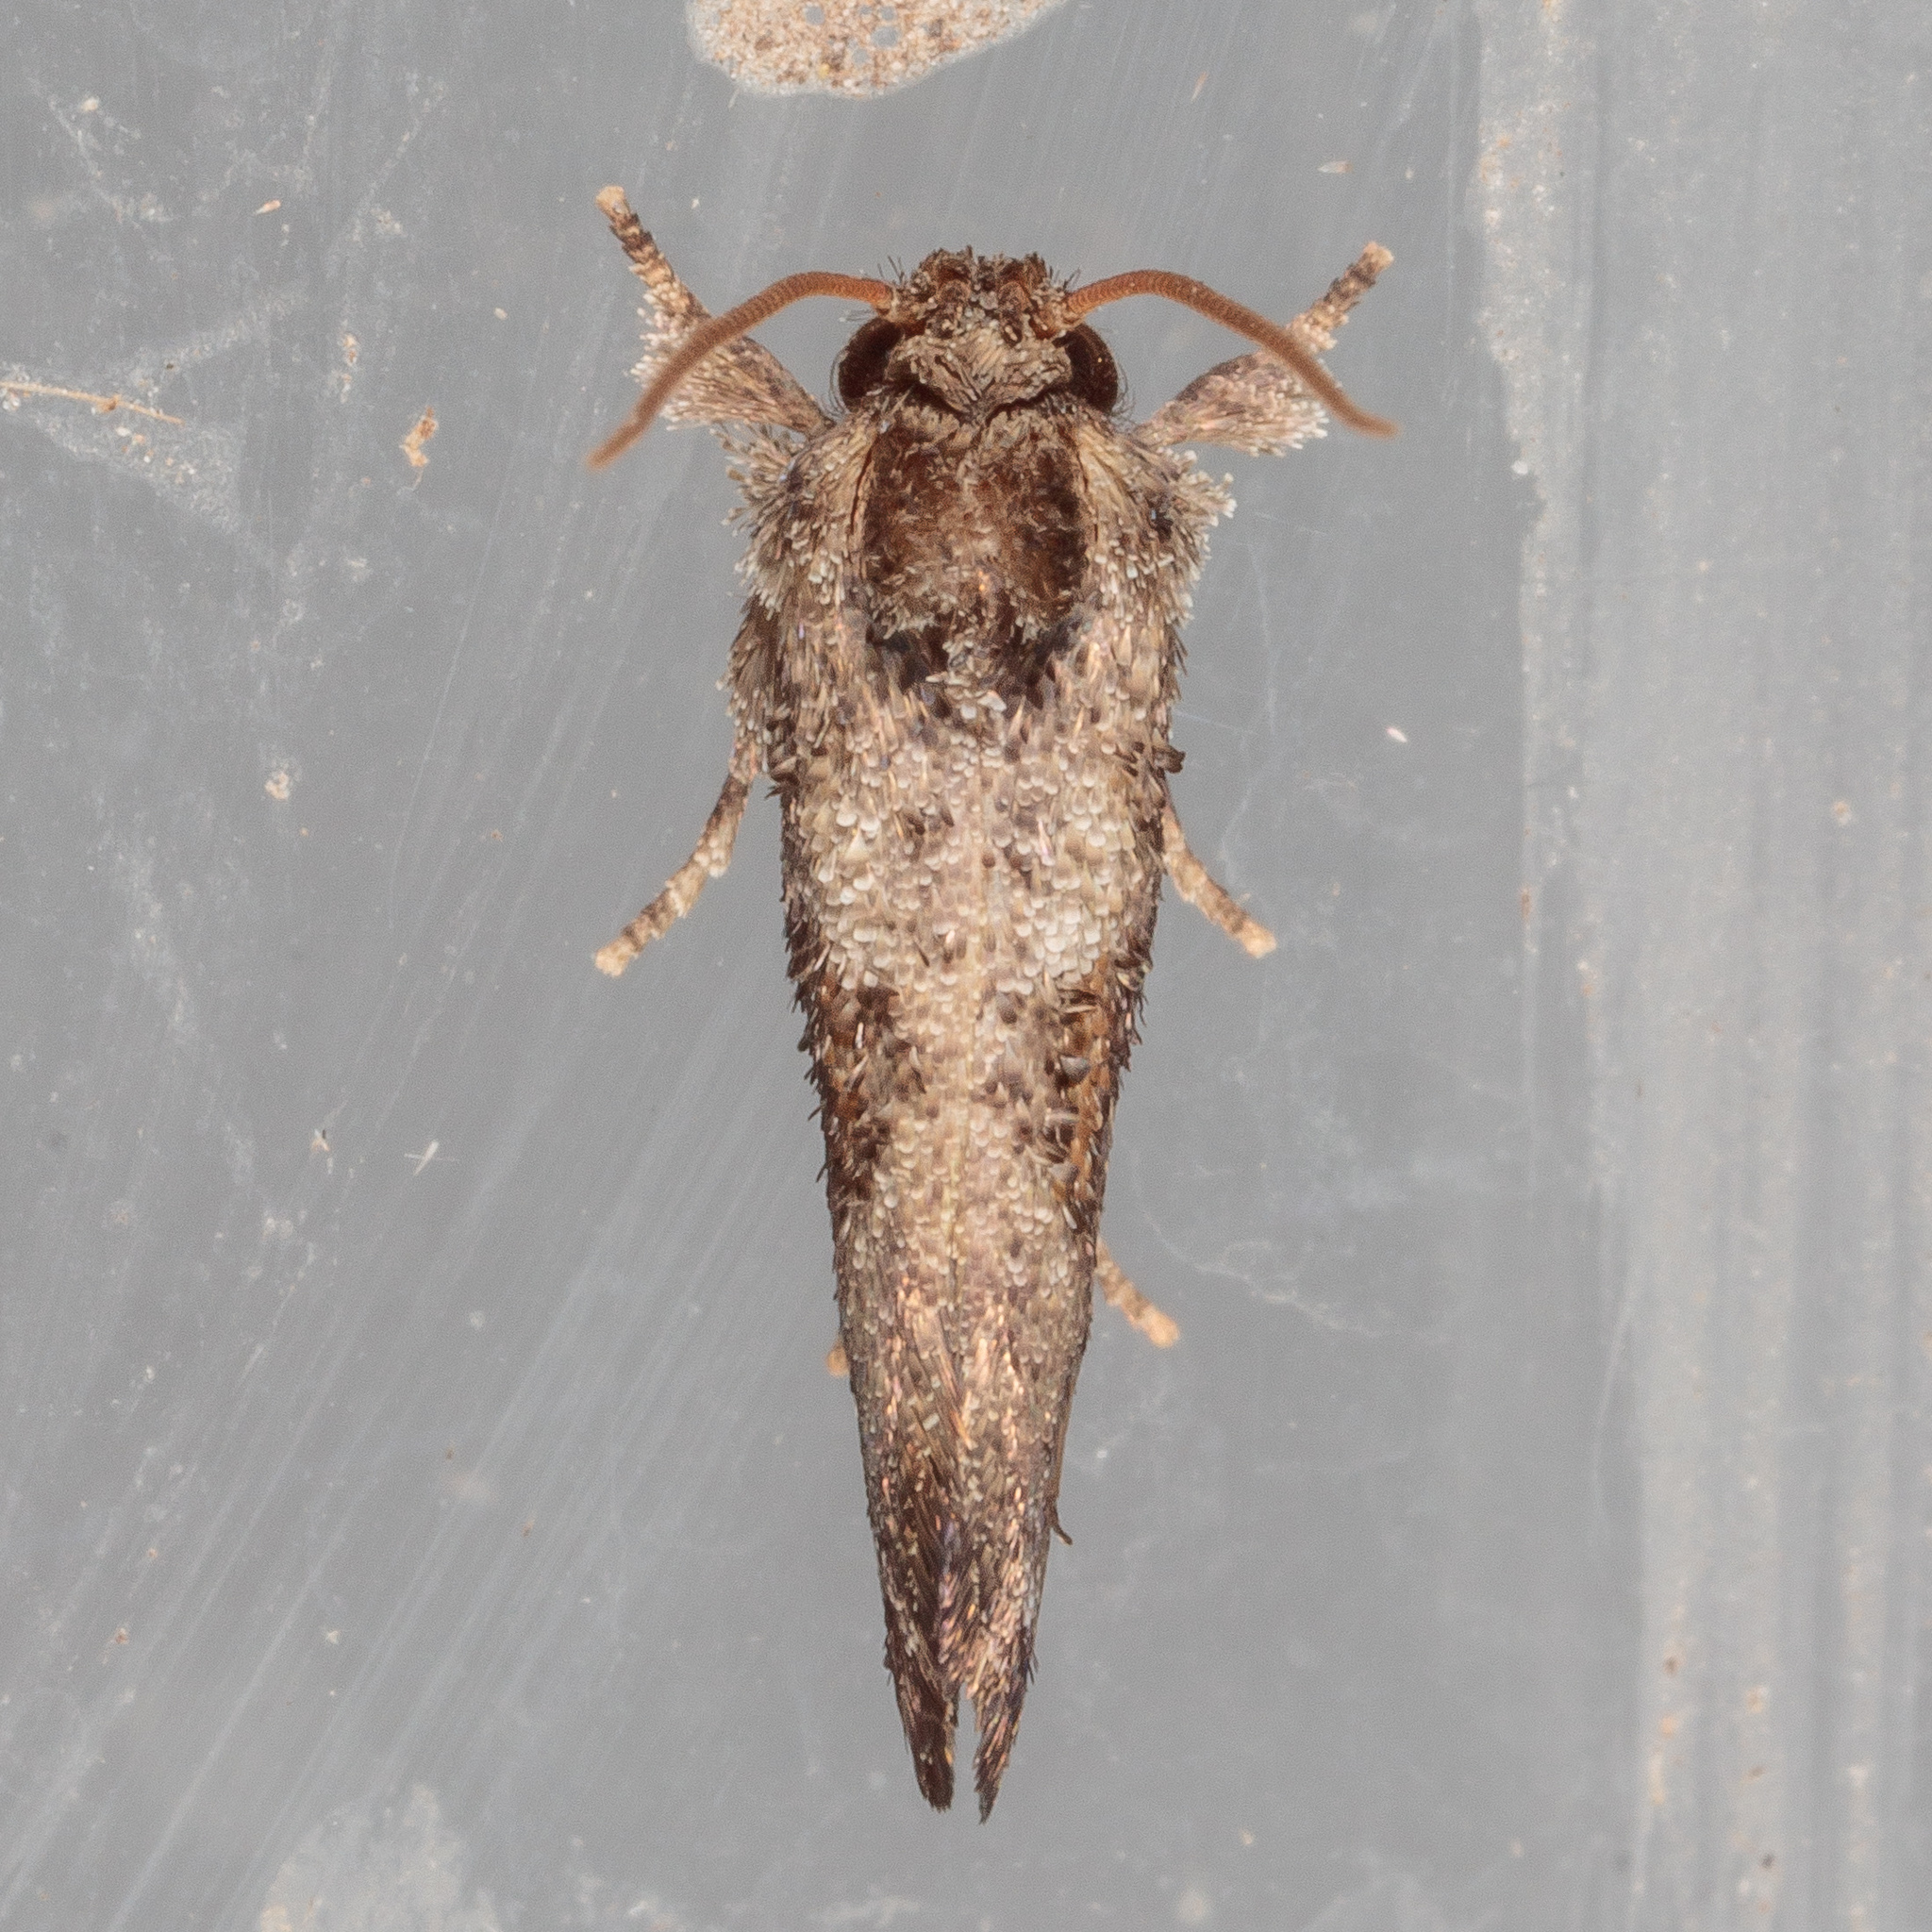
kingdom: Animalia
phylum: Arthropoda
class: Insecta
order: Lepidoptera
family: Tineidae
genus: Acrolophus
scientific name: Acrolophus piger
